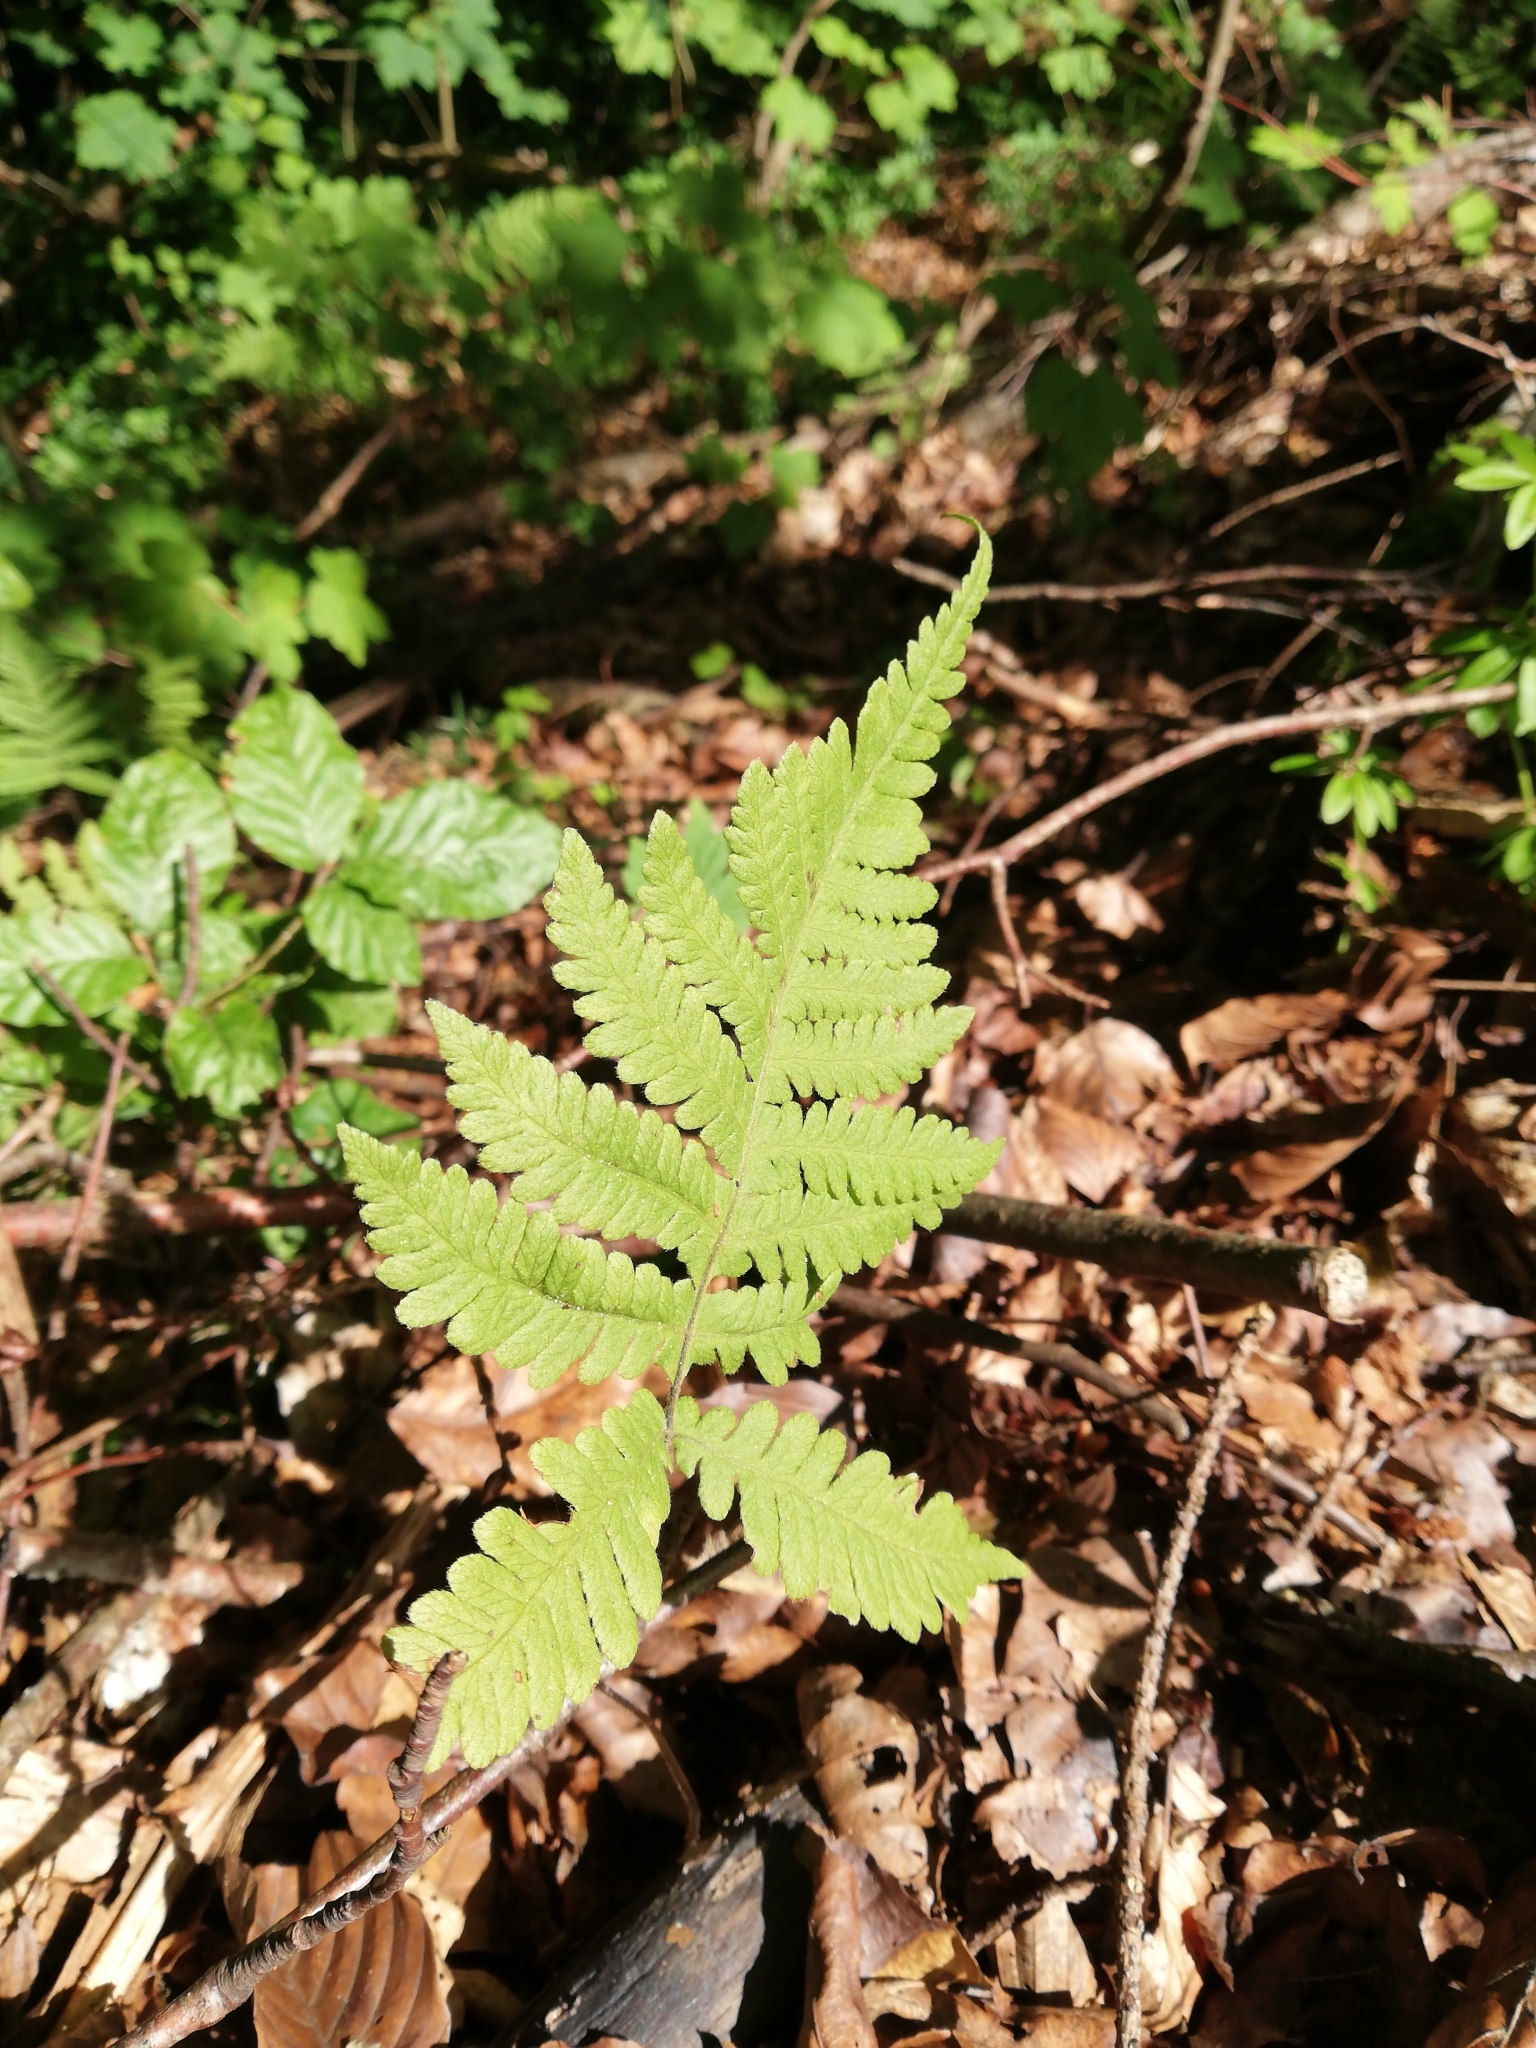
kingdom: Plantae
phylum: Tracheophyta
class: Polypodiopsida
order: Polypodiales
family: Thelypteridaceae
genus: Phegopteris
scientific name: Phegopteris connectilis
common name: Beech fern
